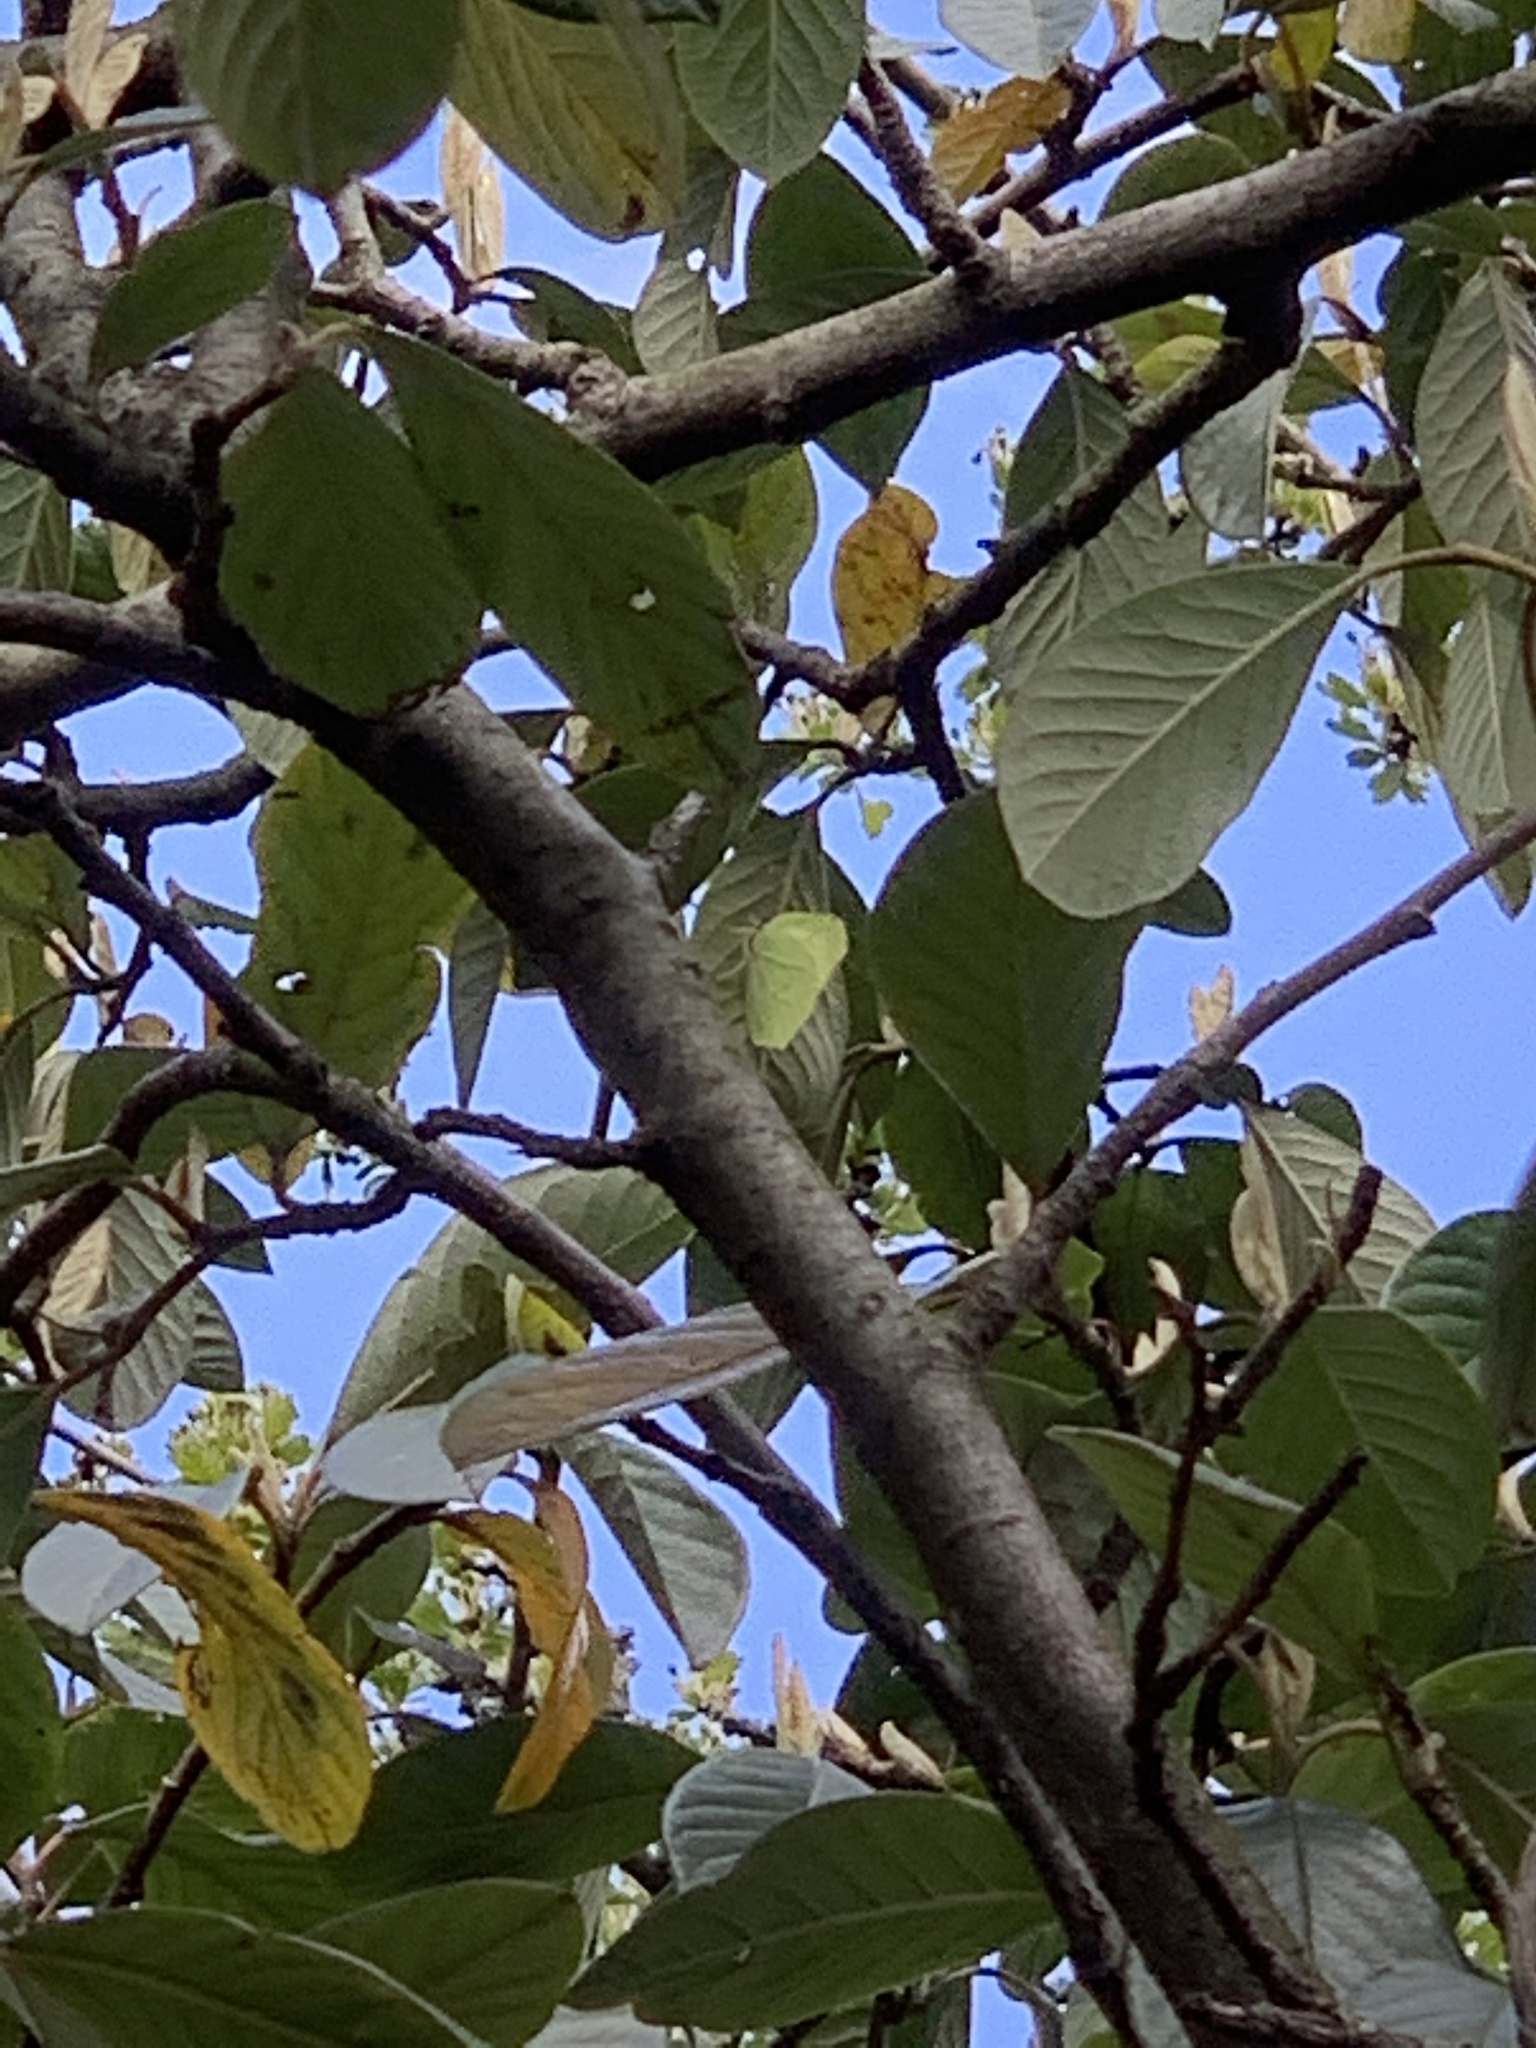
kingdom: Animalia
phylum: Arthropoda
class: Insecta
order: Lepidoptera
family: Pieridae
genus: Gonepteryx
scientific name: Gonepteryx rhamni
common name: Brimstone
